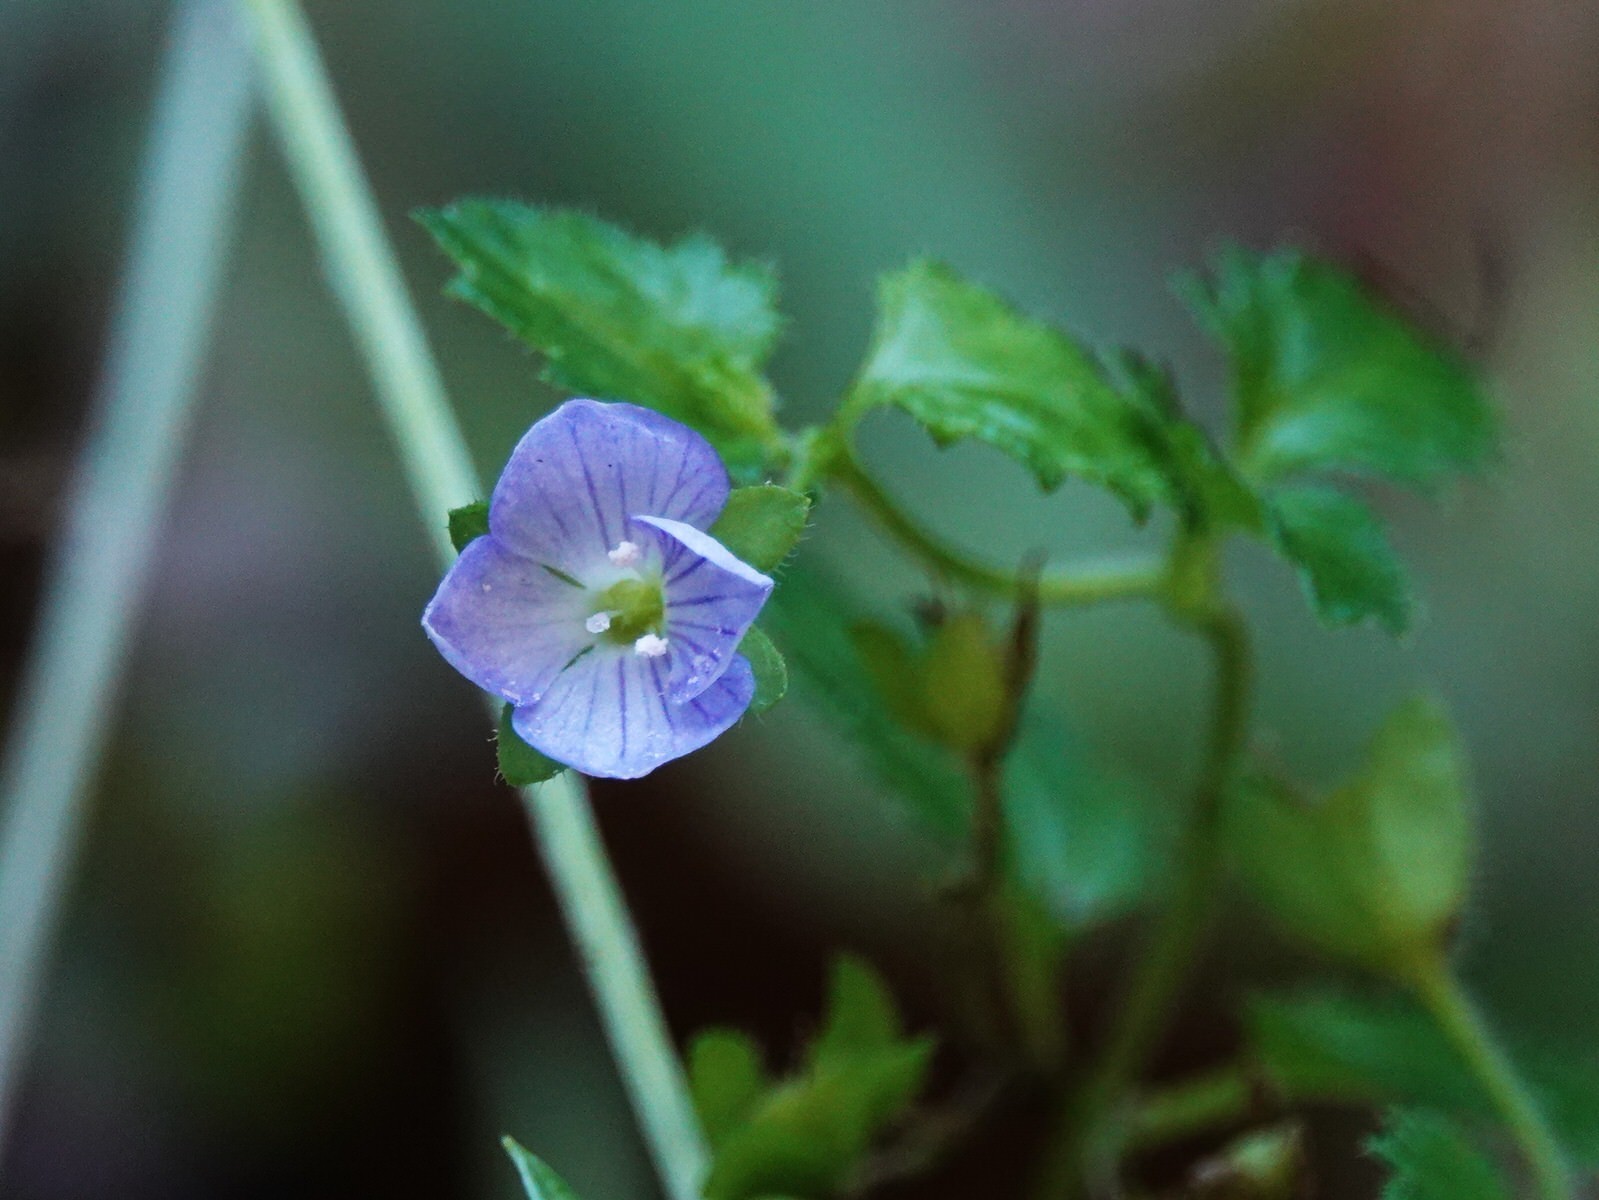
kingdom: Plantae
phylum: Tracheophyta
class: Magnoliopsida
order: Lamiales
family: Plantaginaceae
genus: Veronica
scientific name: Veronica calycina
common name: Cup speedwell
